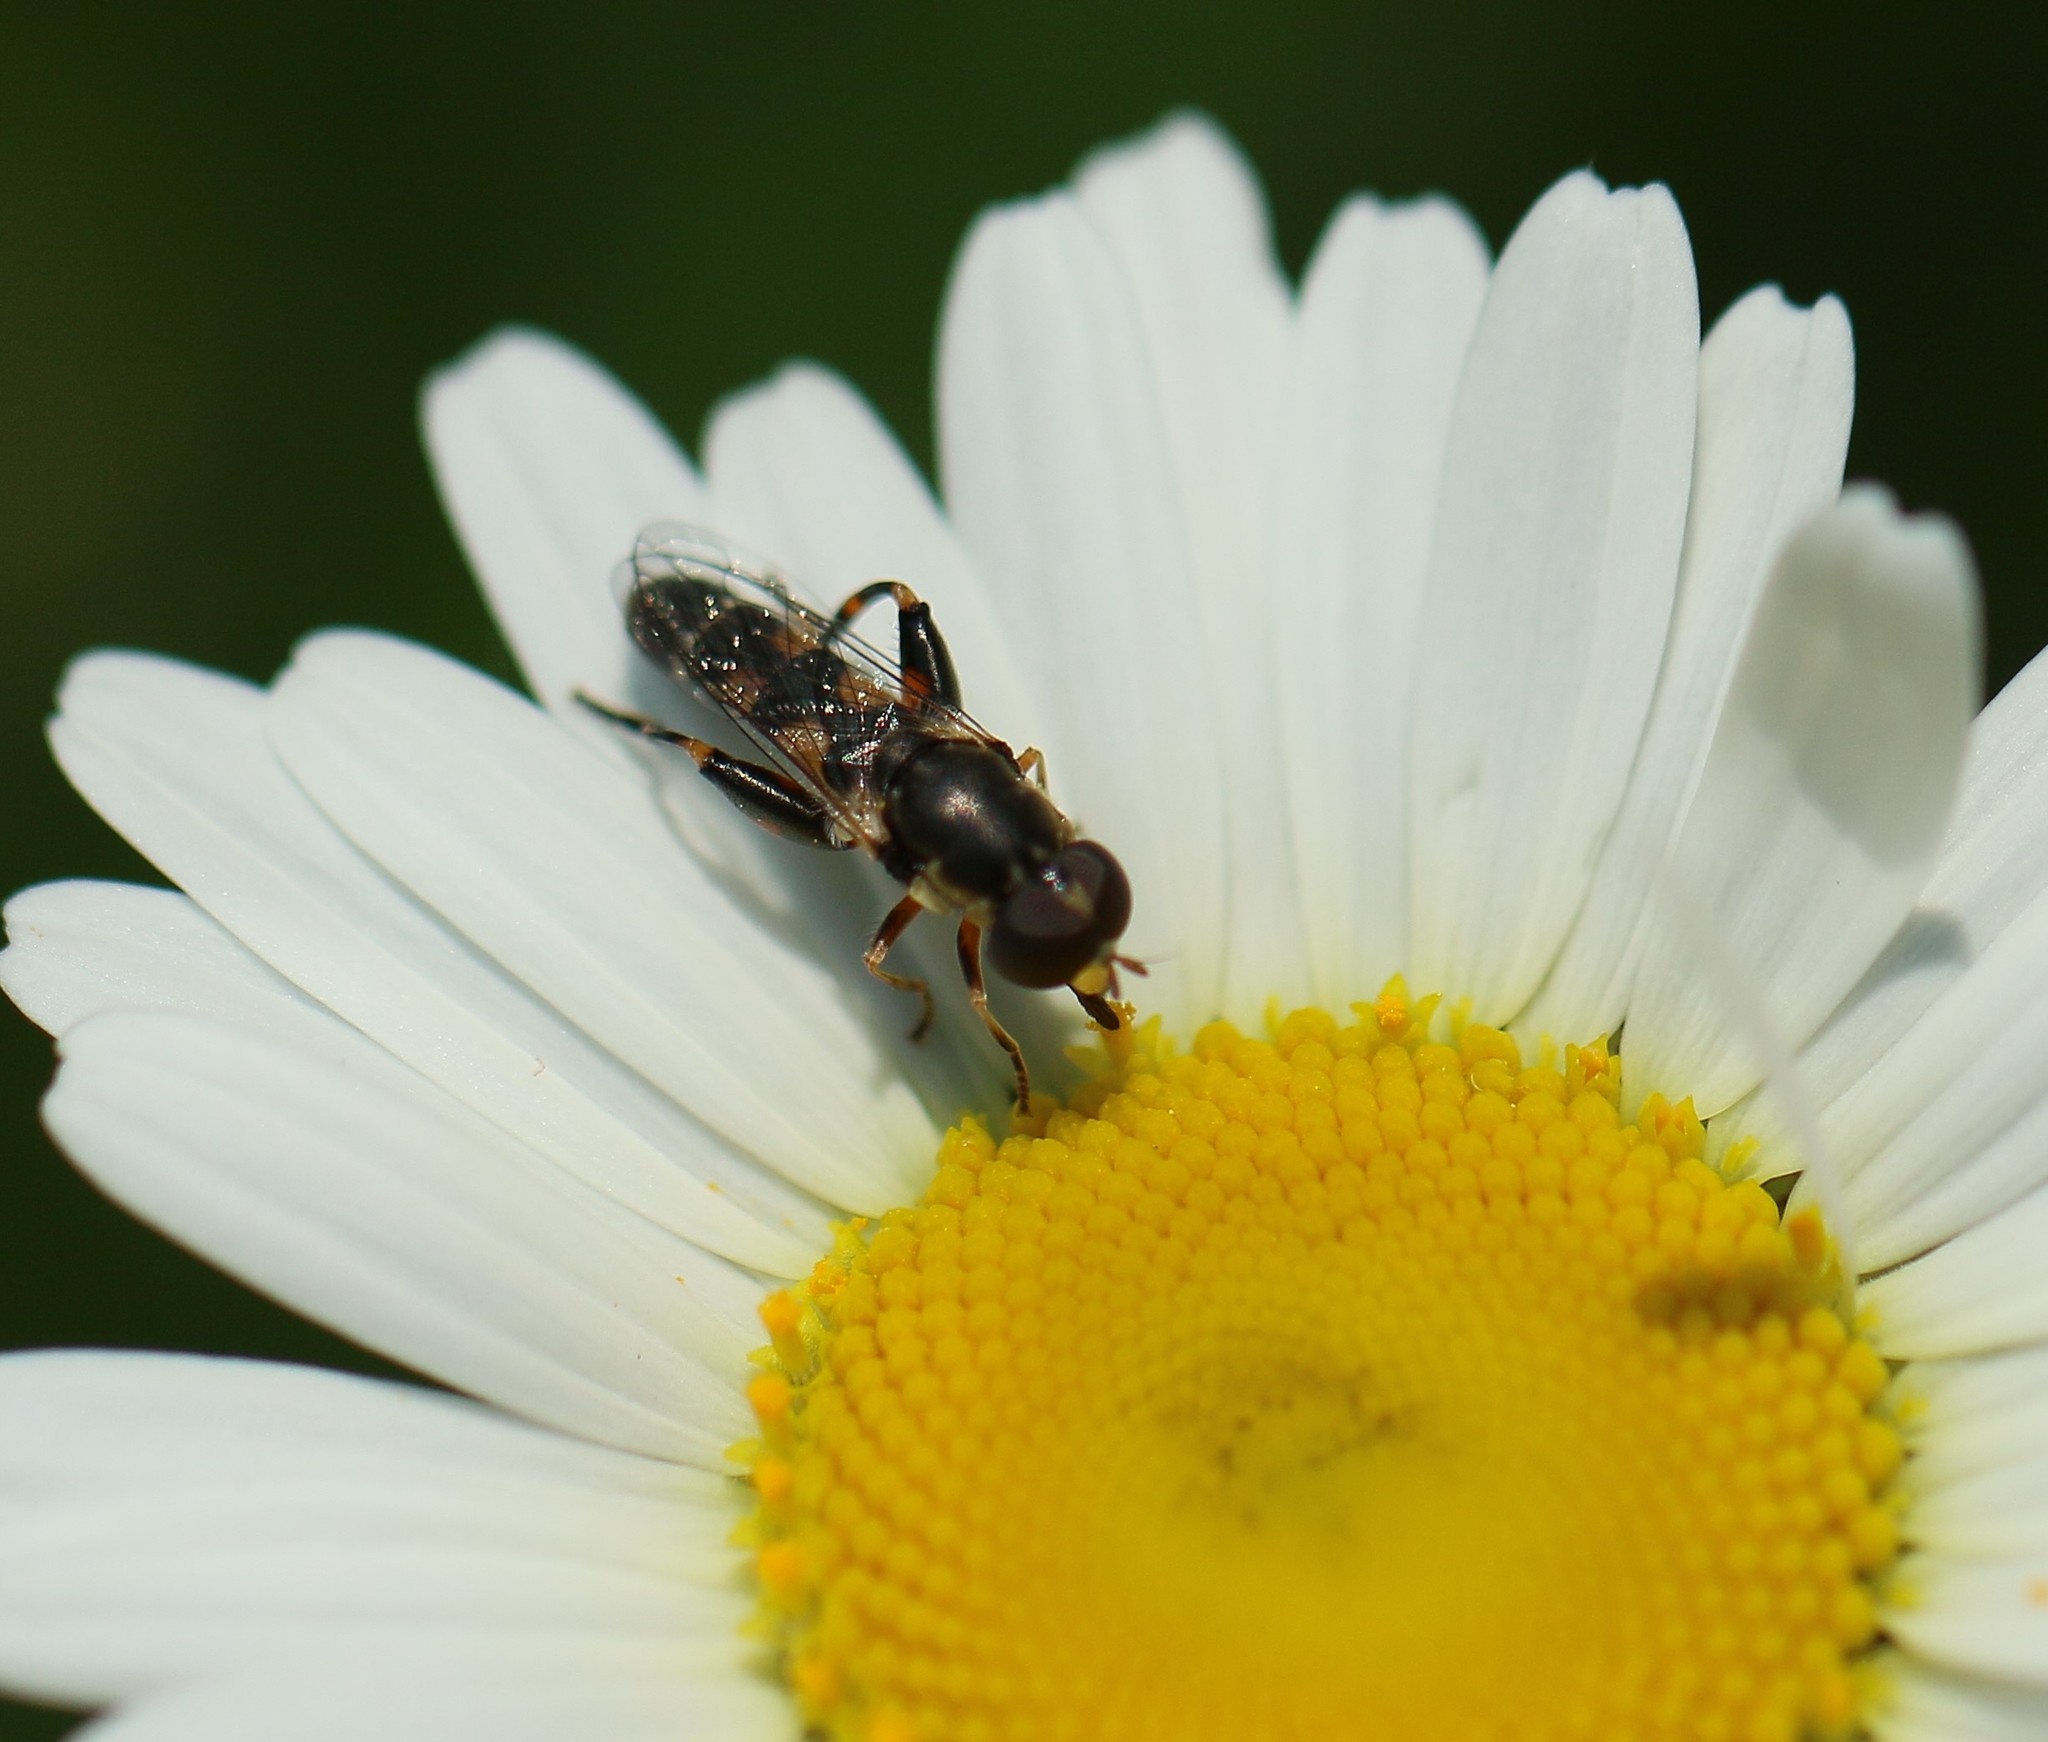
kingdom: Animalia
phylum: Arthropoda
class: Insecta
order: Diptera
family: Syrphidae
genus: Syritta
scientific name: Syritta pipiens
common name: Hover fly
